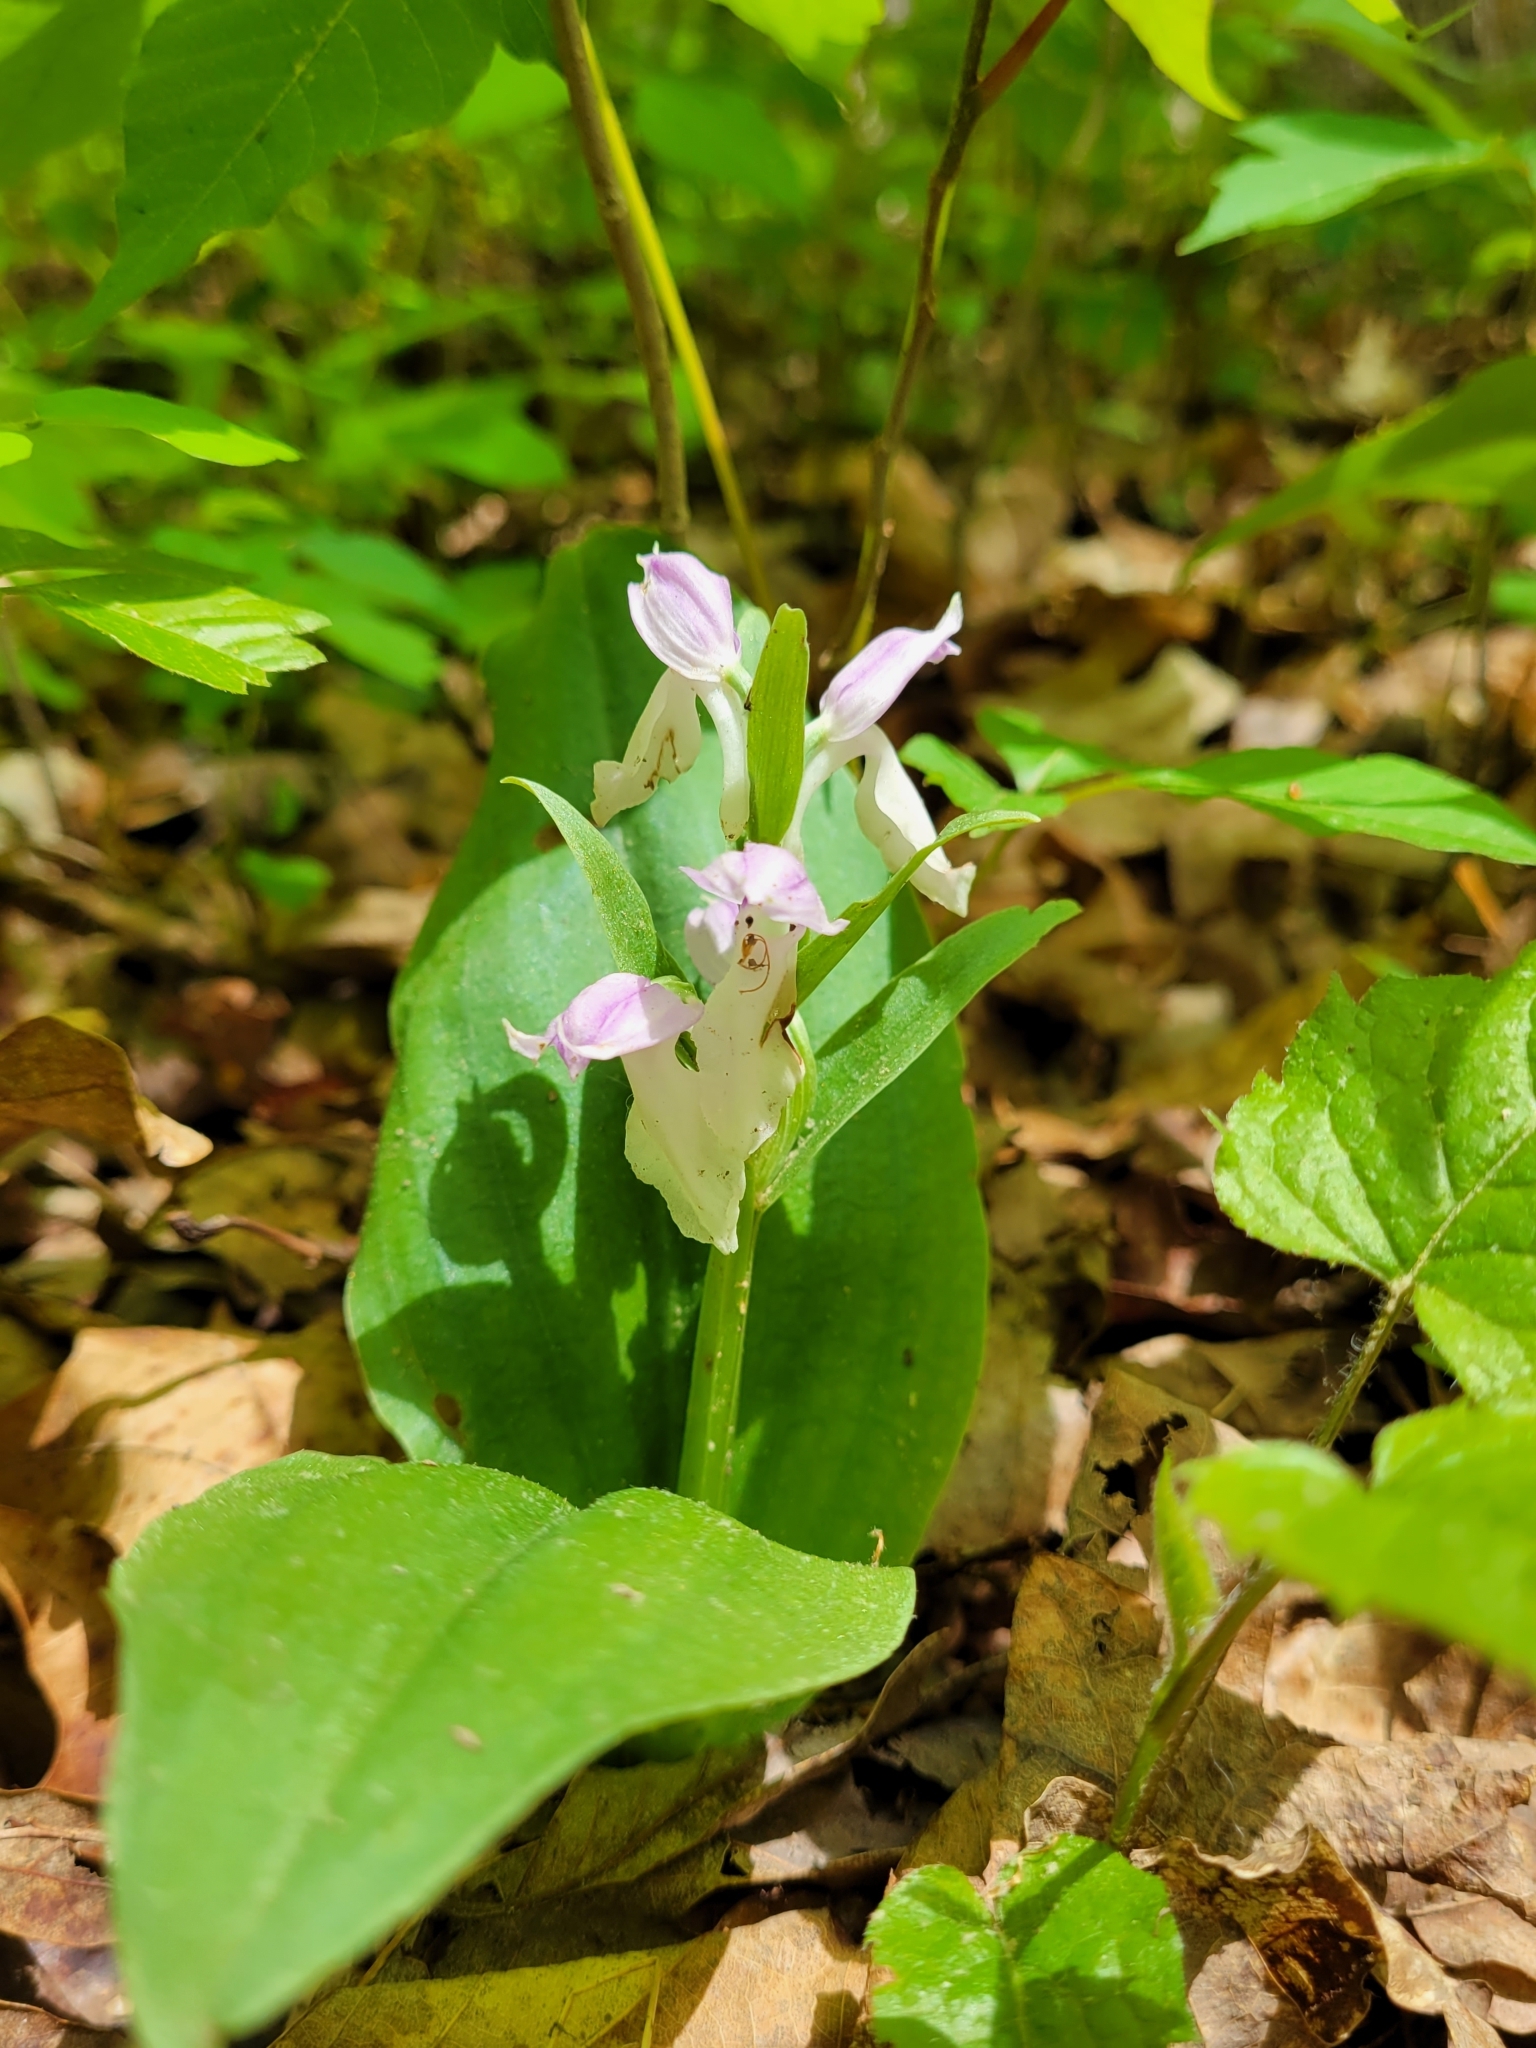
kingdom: Plantae
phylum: Tracheophyta
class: Liliopsida
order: Asparagales
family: Orchidaceae
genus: Galearis
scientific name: Galearis spectabilis
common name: Purple-hooded orchis
